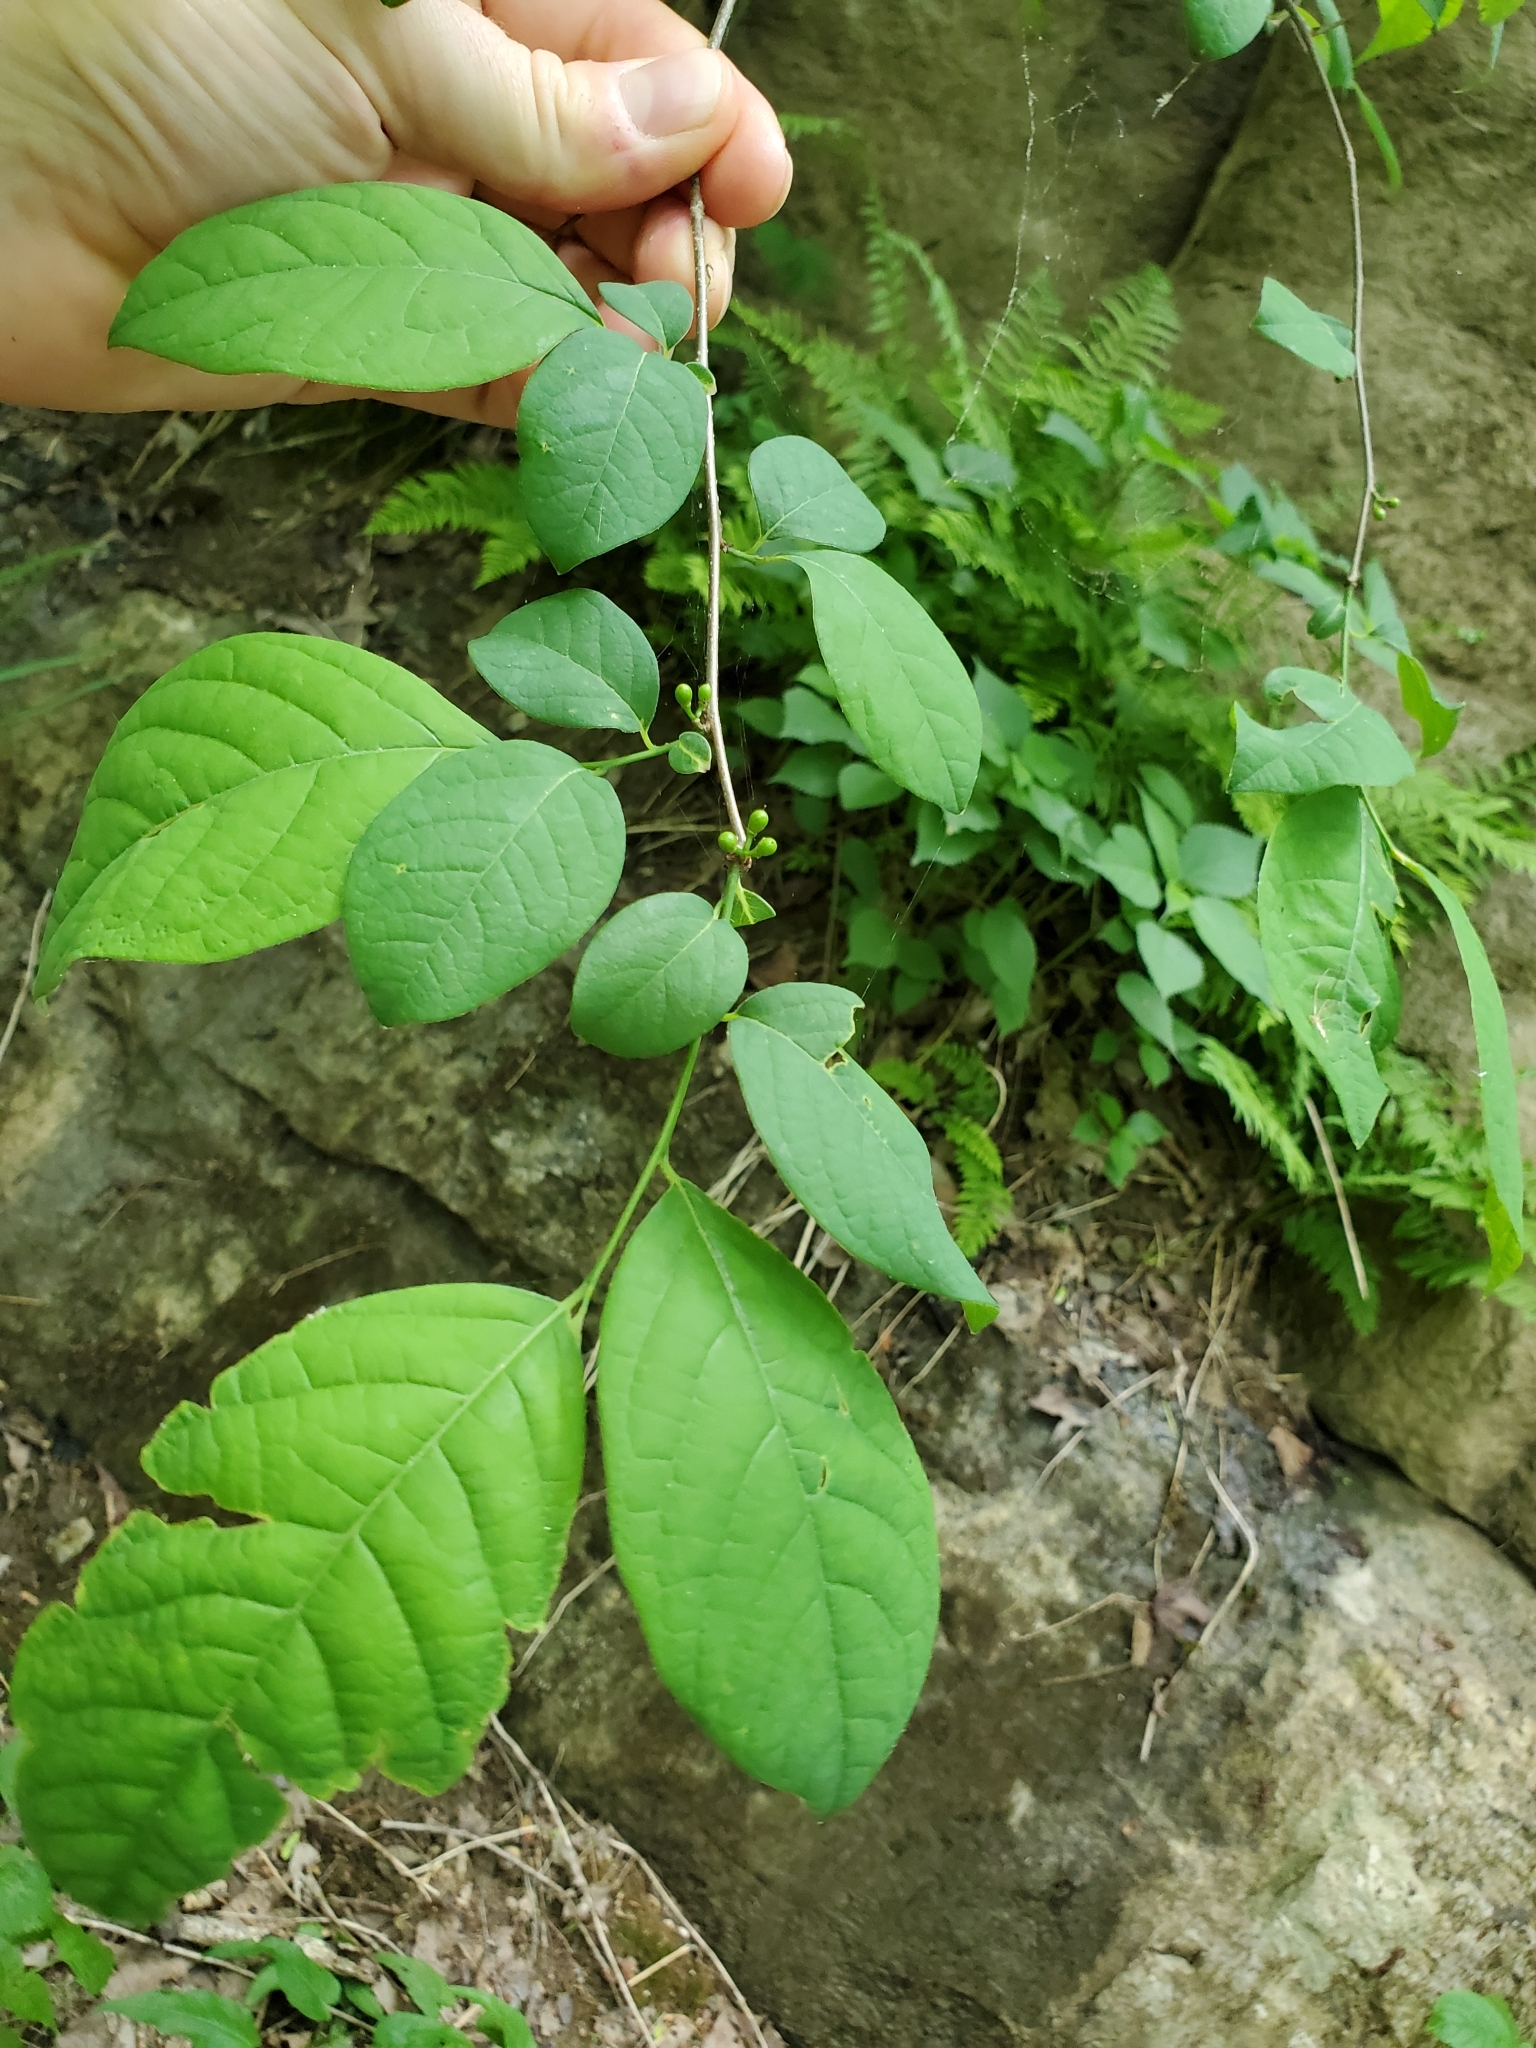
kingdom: Plantae
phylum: Tracheophyta
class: Magnoliopsida
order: Laurales
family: Lauraceae
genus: Lindera
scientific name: Lindera benzoin
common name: Spicebush
